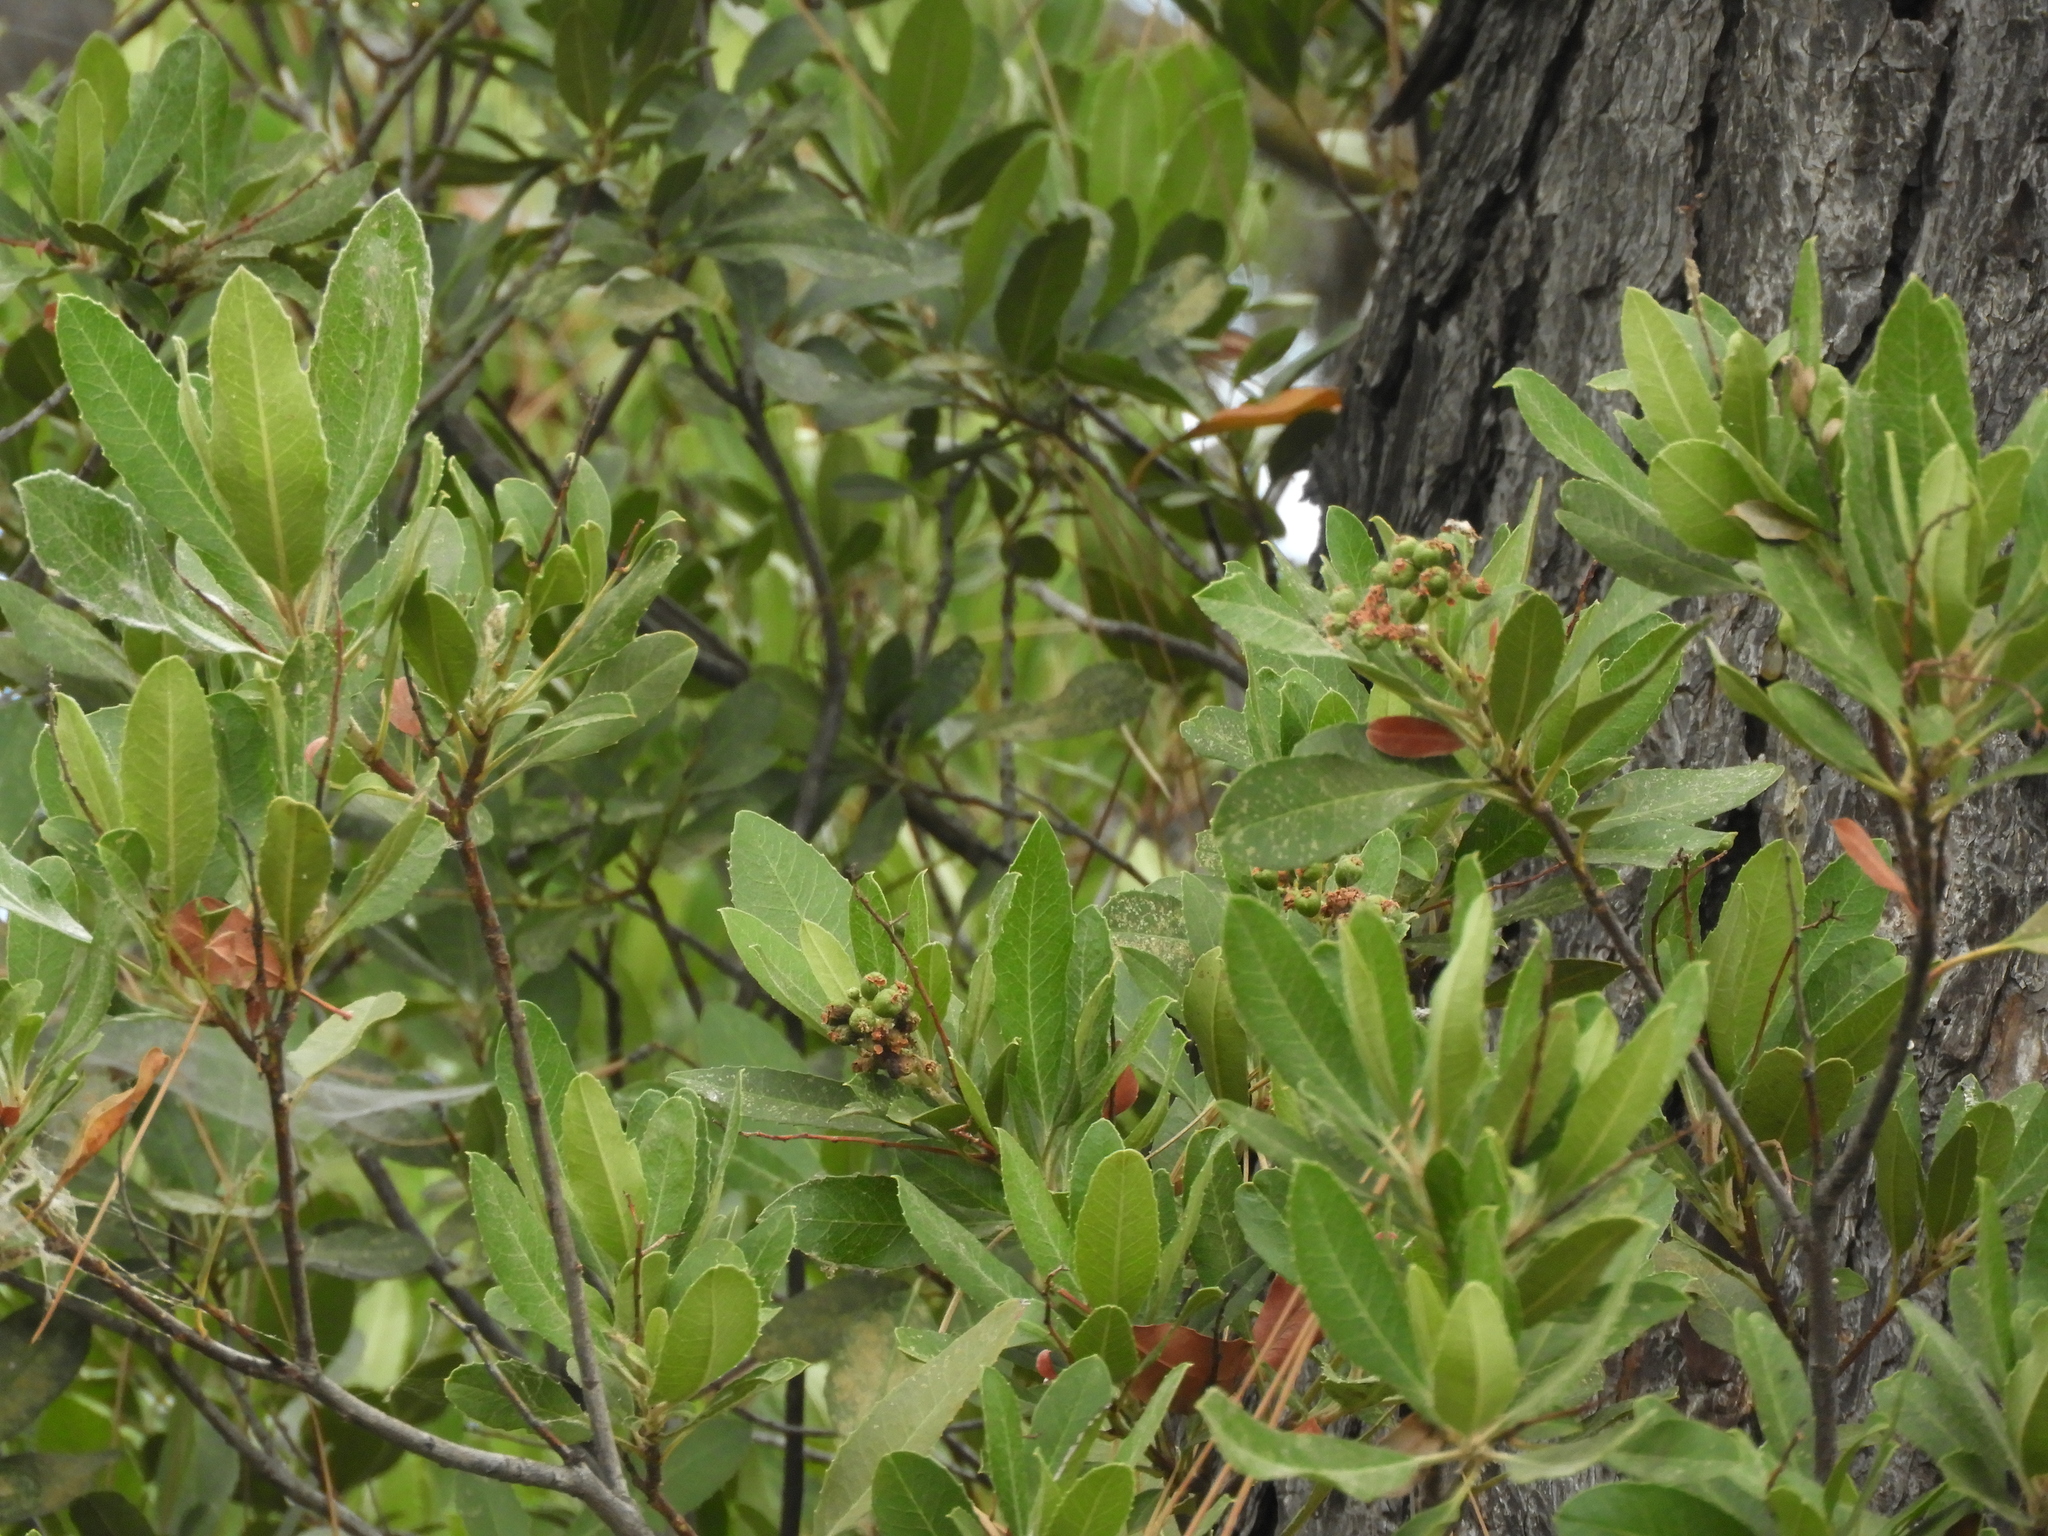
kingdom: Plantae
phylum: Tracheophyta
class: Magnoliopsida
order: Rosales
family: Rosaceae
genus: Heteromeles
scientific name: Heteromeles arbutifolia
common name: California-holly
